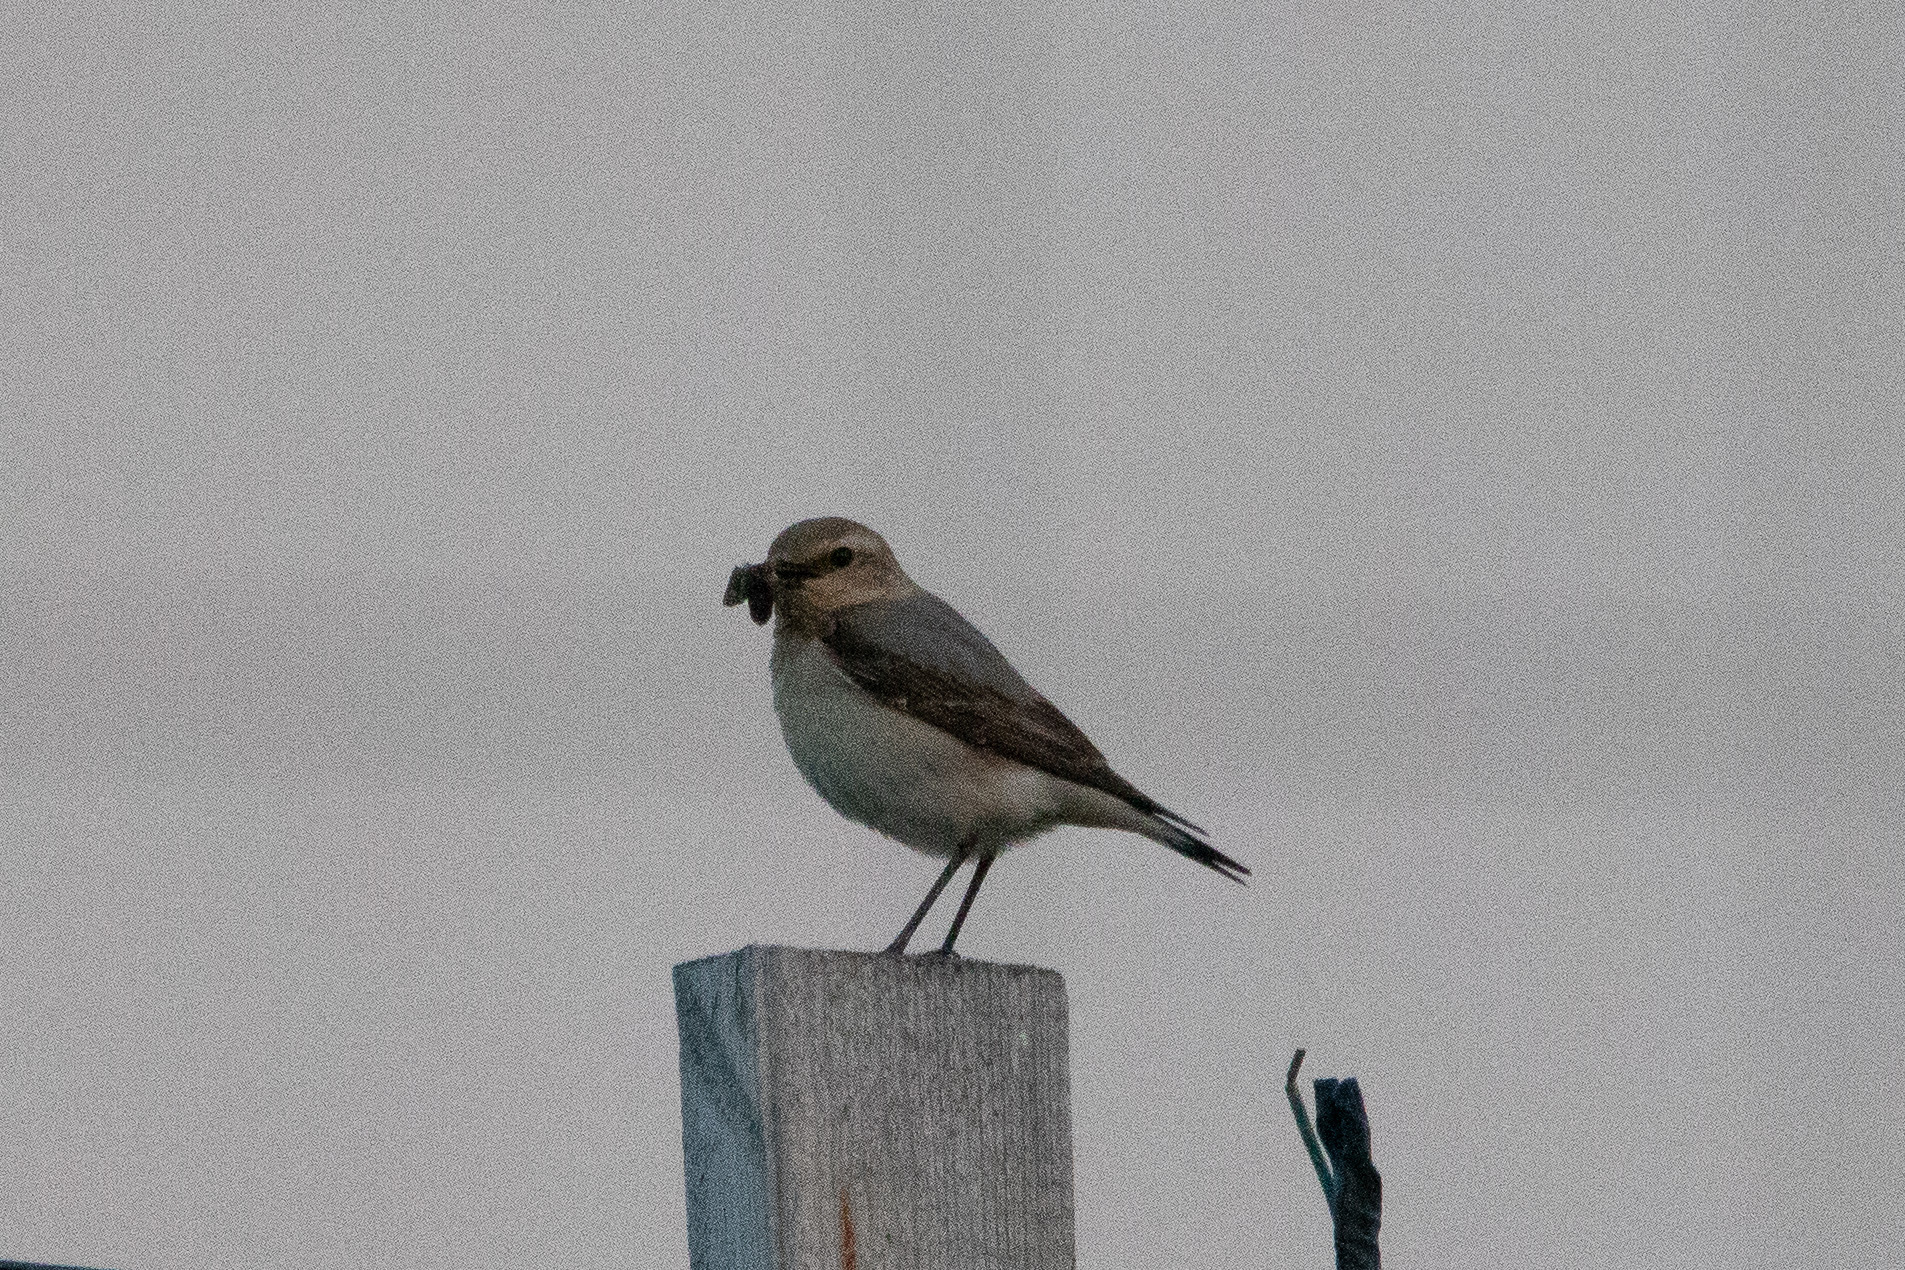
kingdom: Animalia
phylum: Chordata
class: Aves
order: Passeriformes
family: Muscicapidae
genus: Oenanthe
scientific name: Oenanthe oenanthe
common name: Northern wheatear
